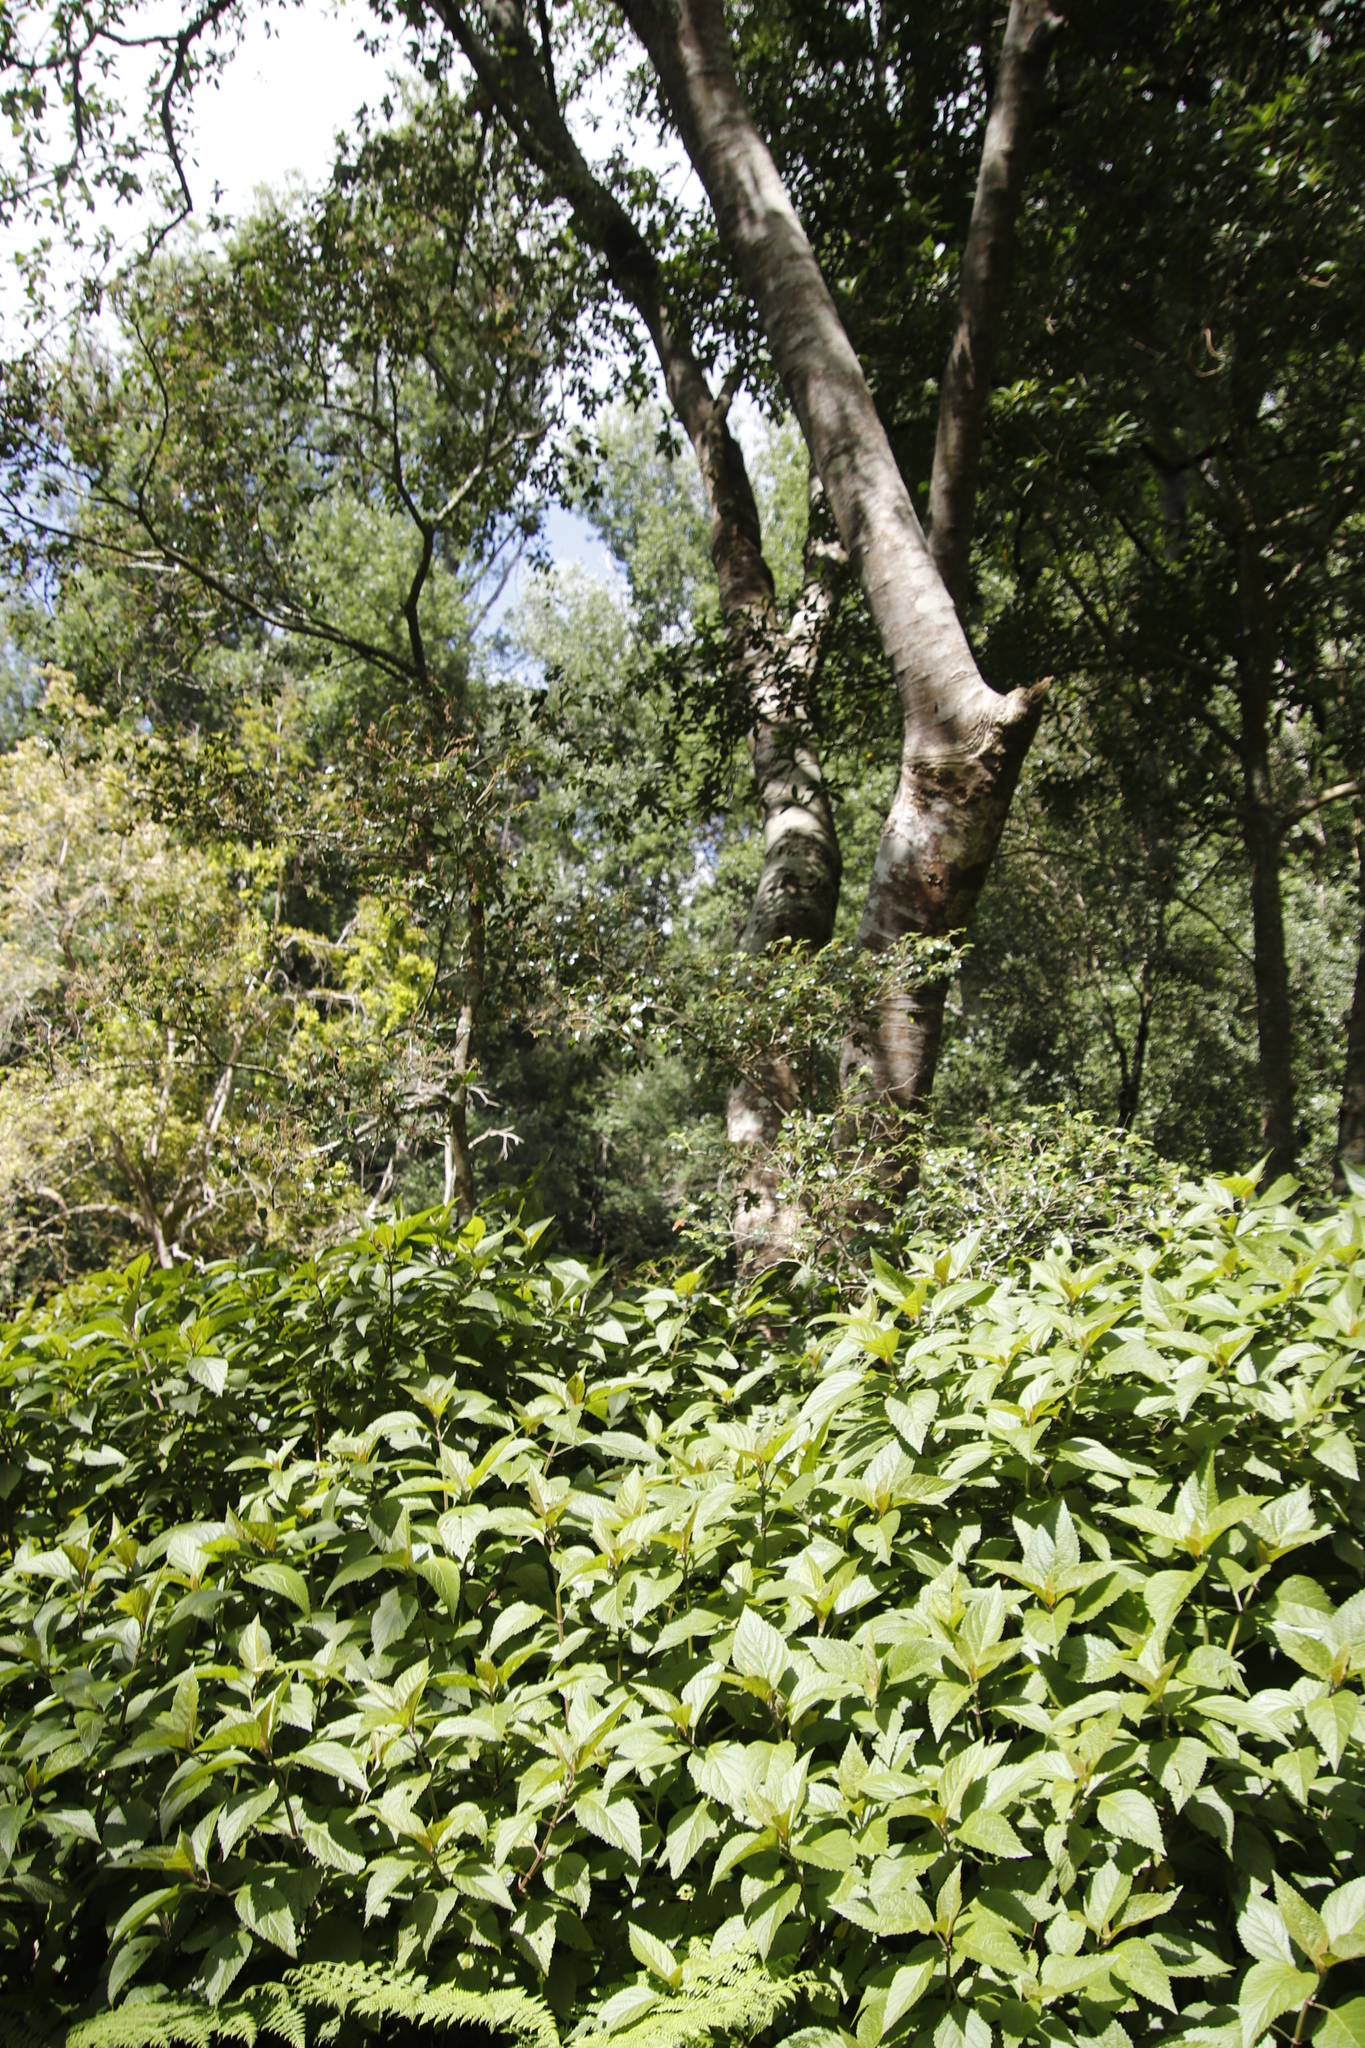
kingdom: Plantae
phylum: Tracheophyta
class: Magnoliopsida
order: Ericales
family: Ebenaceae
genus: Diospyros
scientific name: Diospyros whyteana
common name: Bladder-nut
